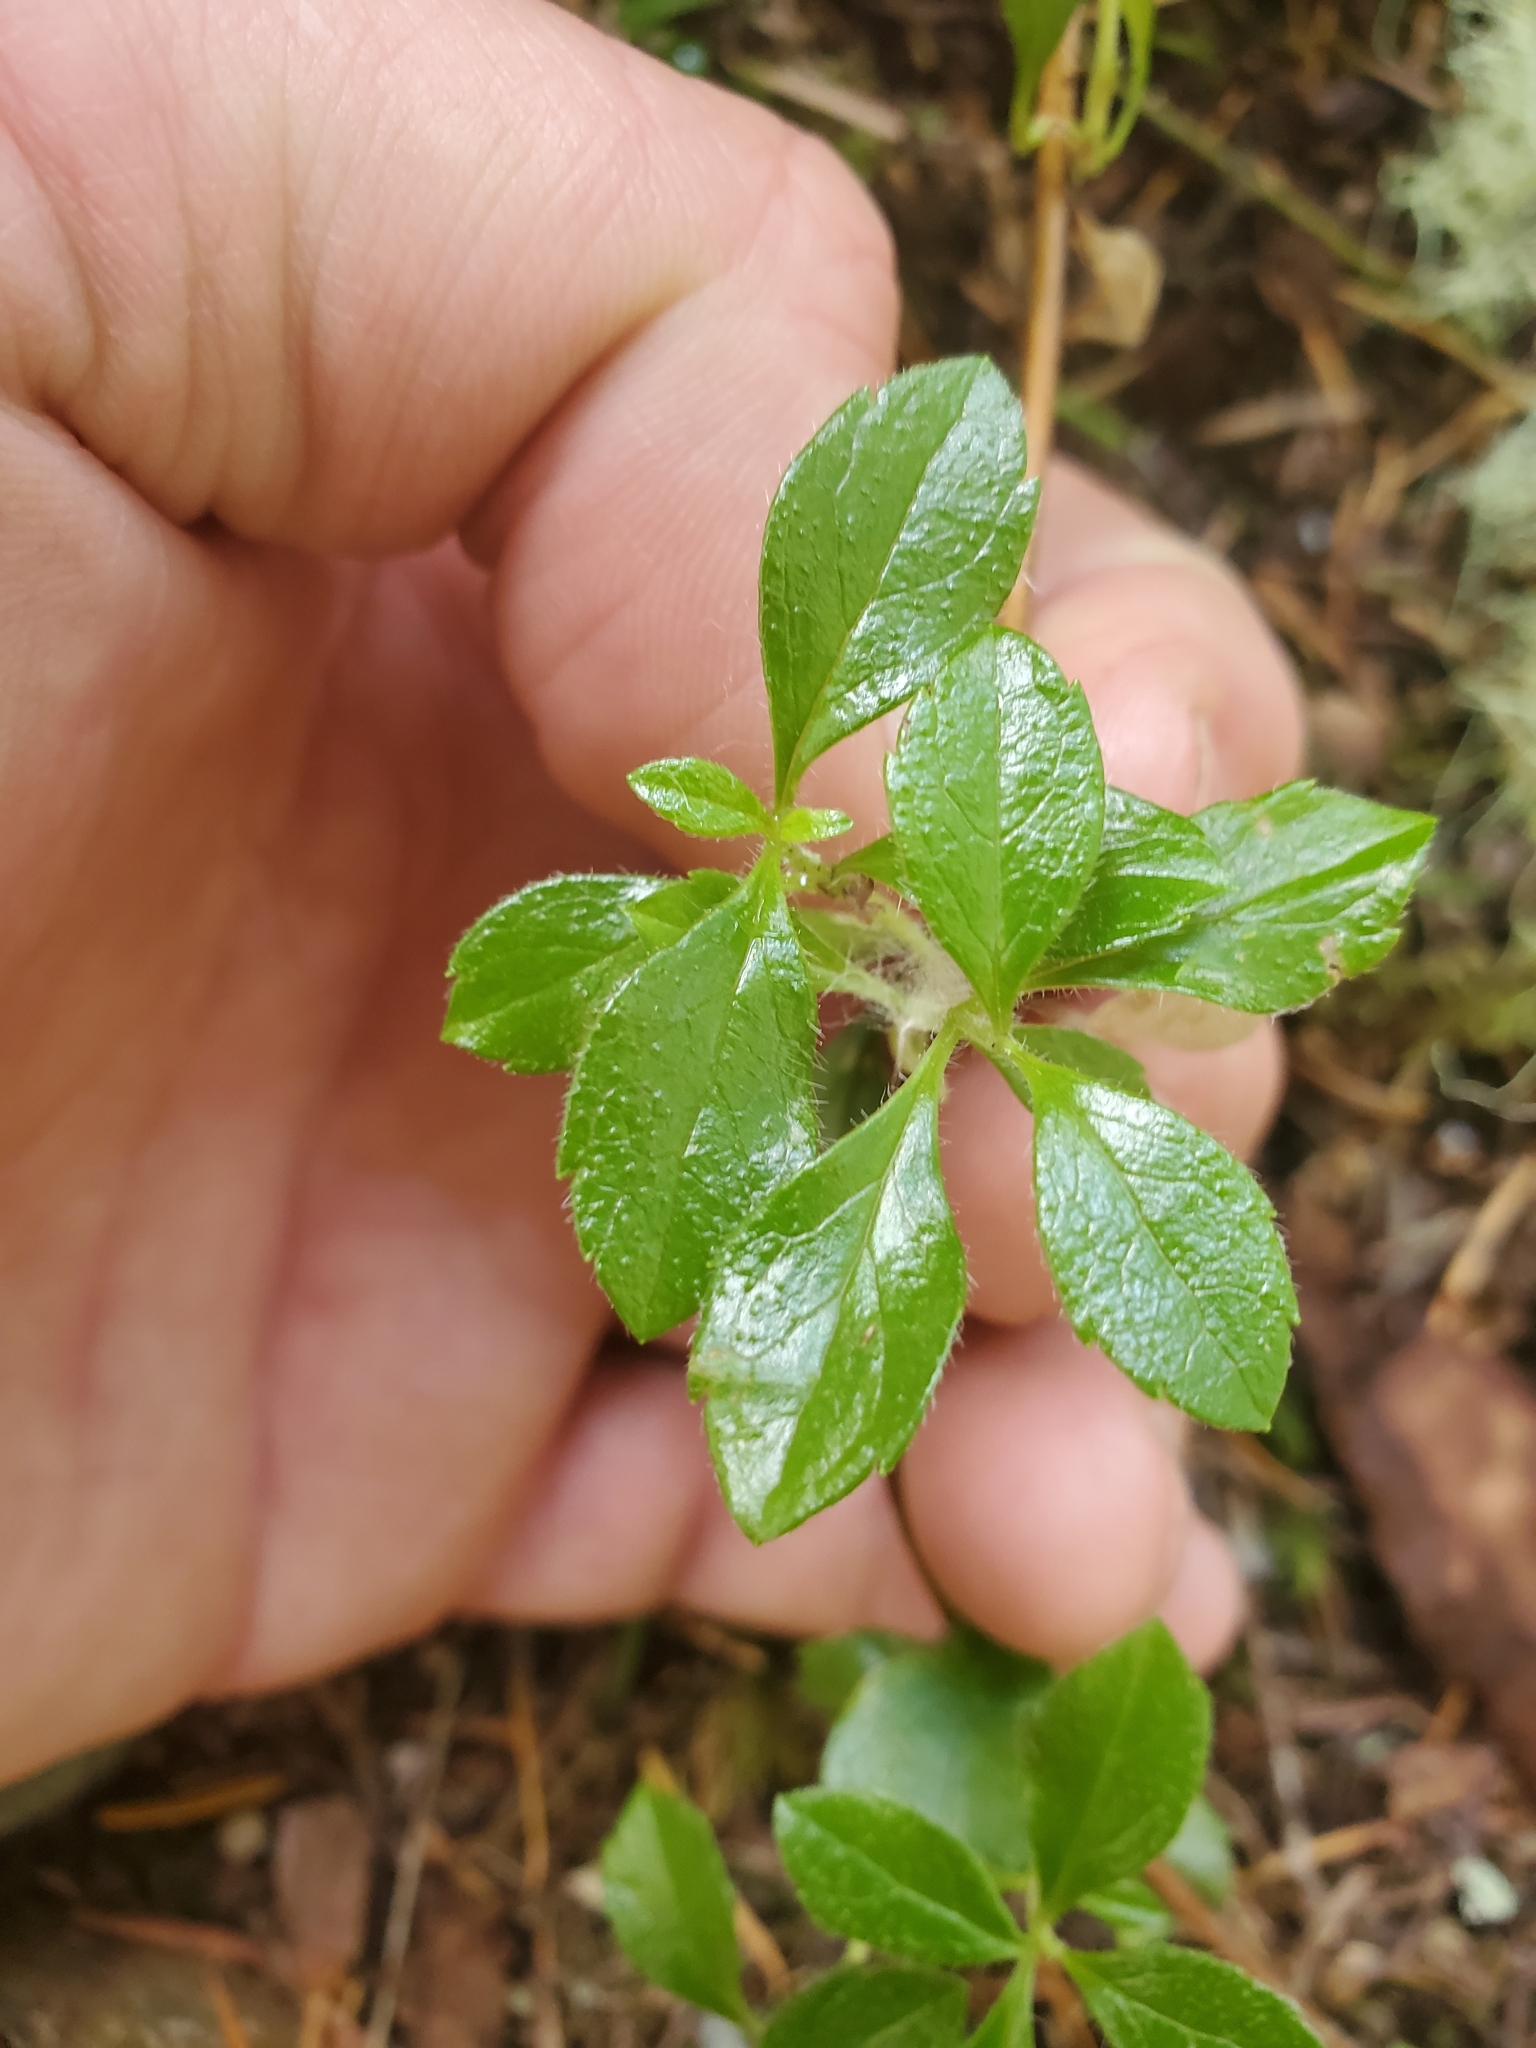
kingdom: Plantae
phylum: Tracheophyta
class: Magnoliopsida
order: Dipsacales
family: Caprifoliaceae
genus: Linnaea
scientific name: Linnaea borealis
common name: Twinflower
